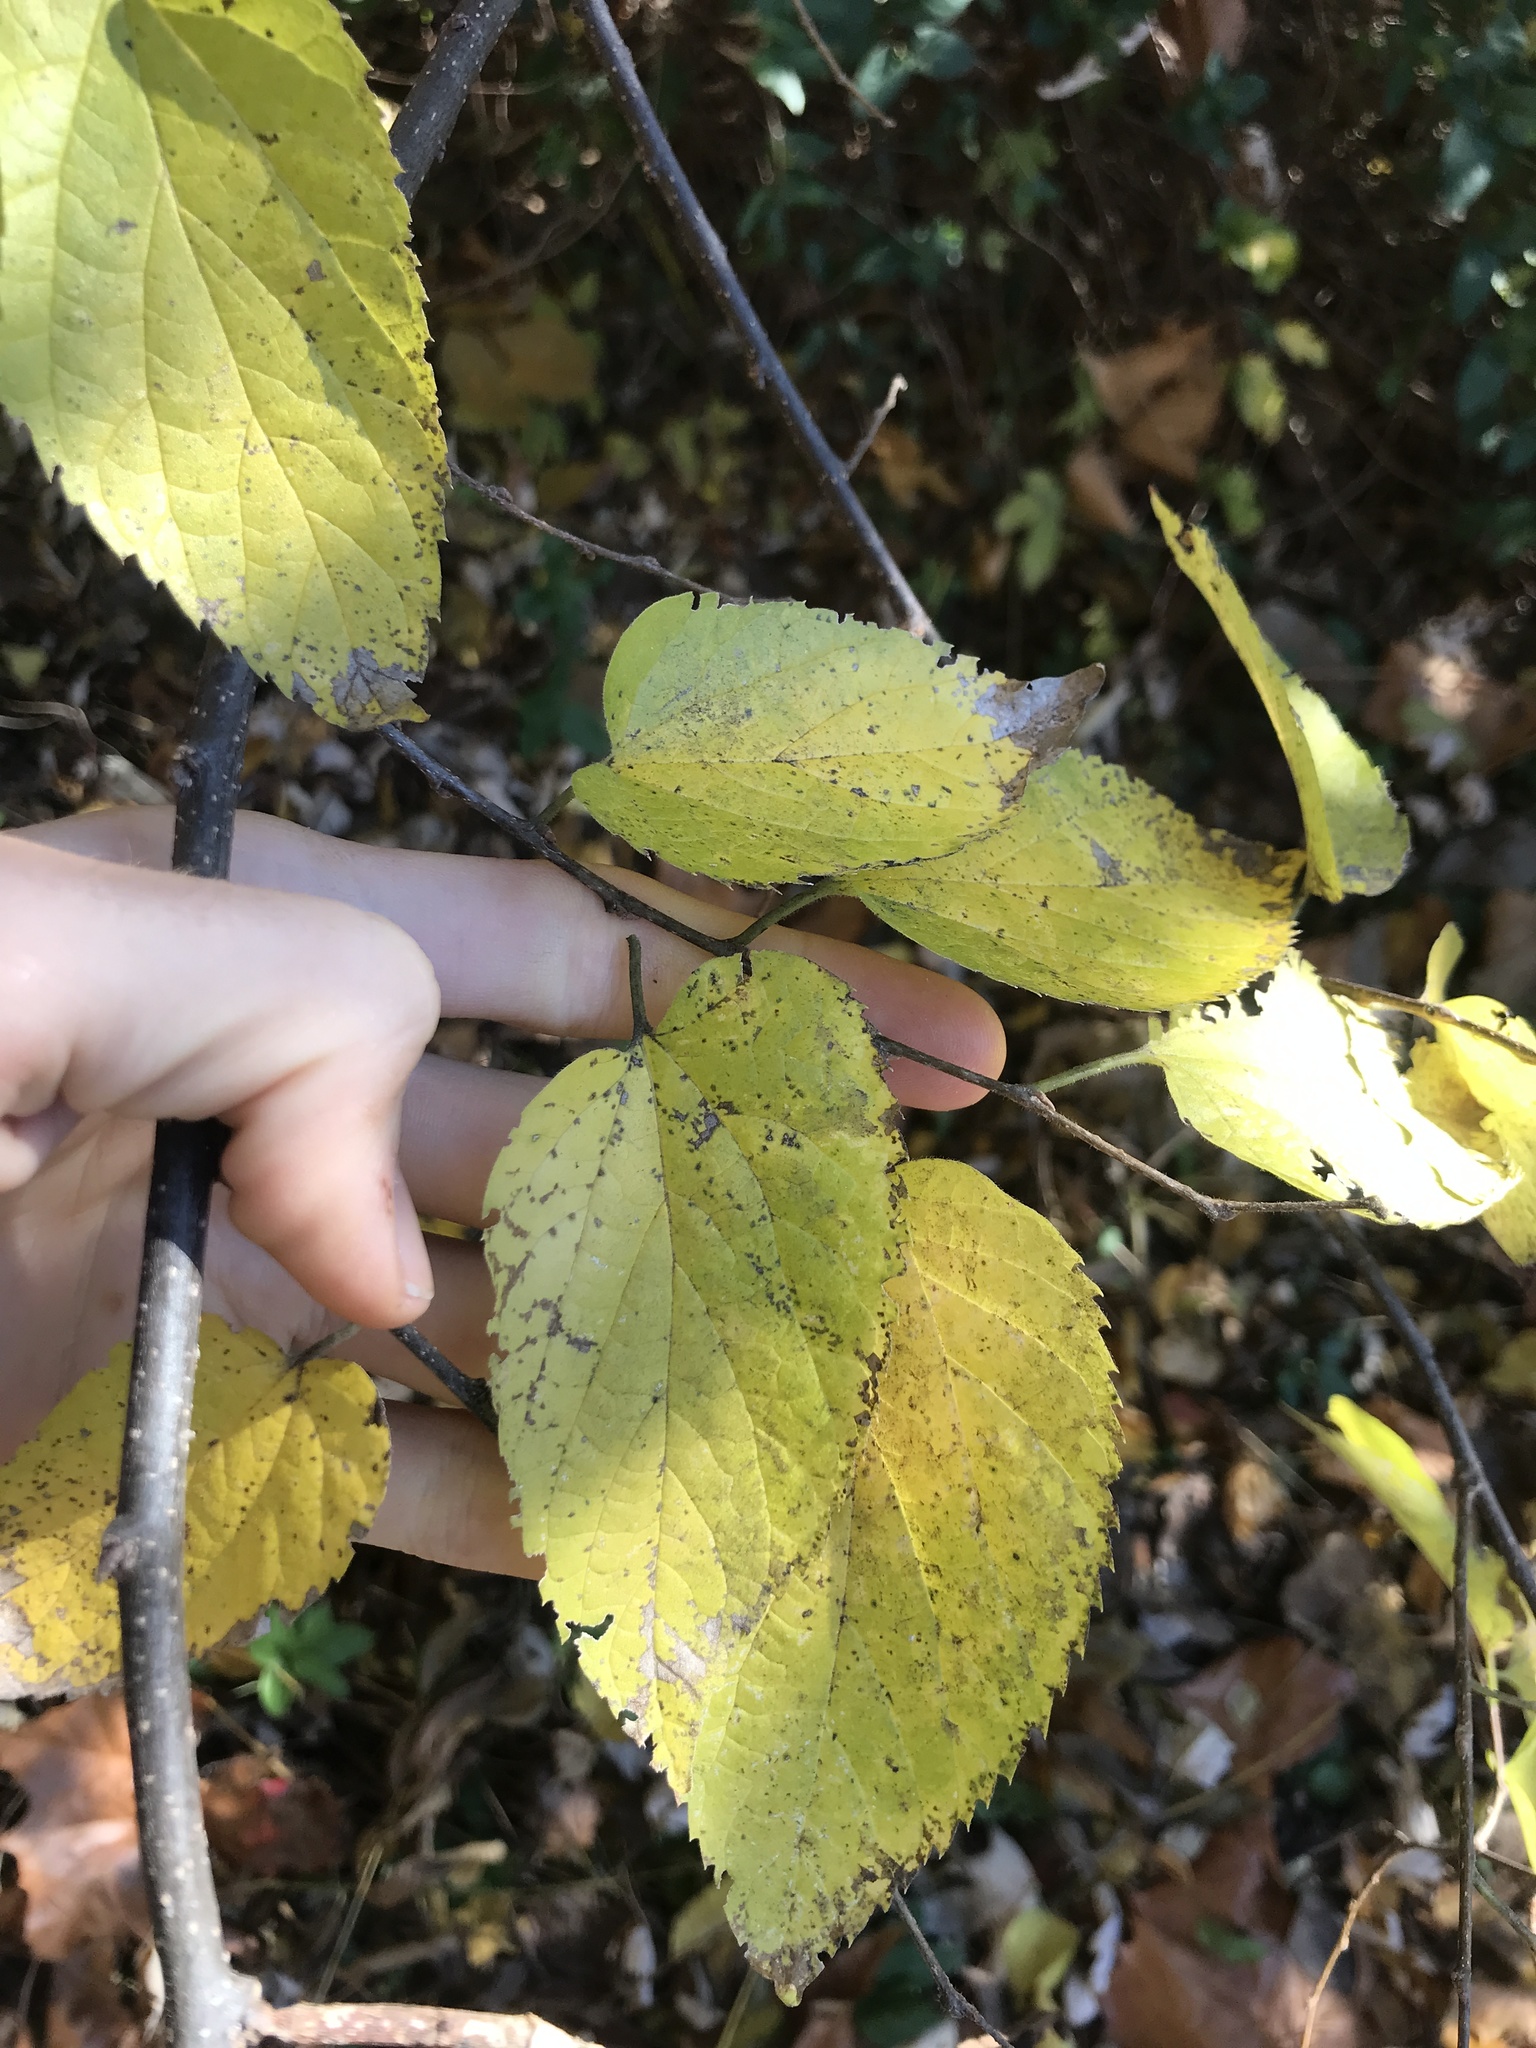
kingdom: Plantae
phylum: Tracheophyta
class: Magnoliopsida
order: Rosales
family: Cannabaceae
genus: Celtis
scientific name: Celtis occidentalis
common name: Common hackberry
